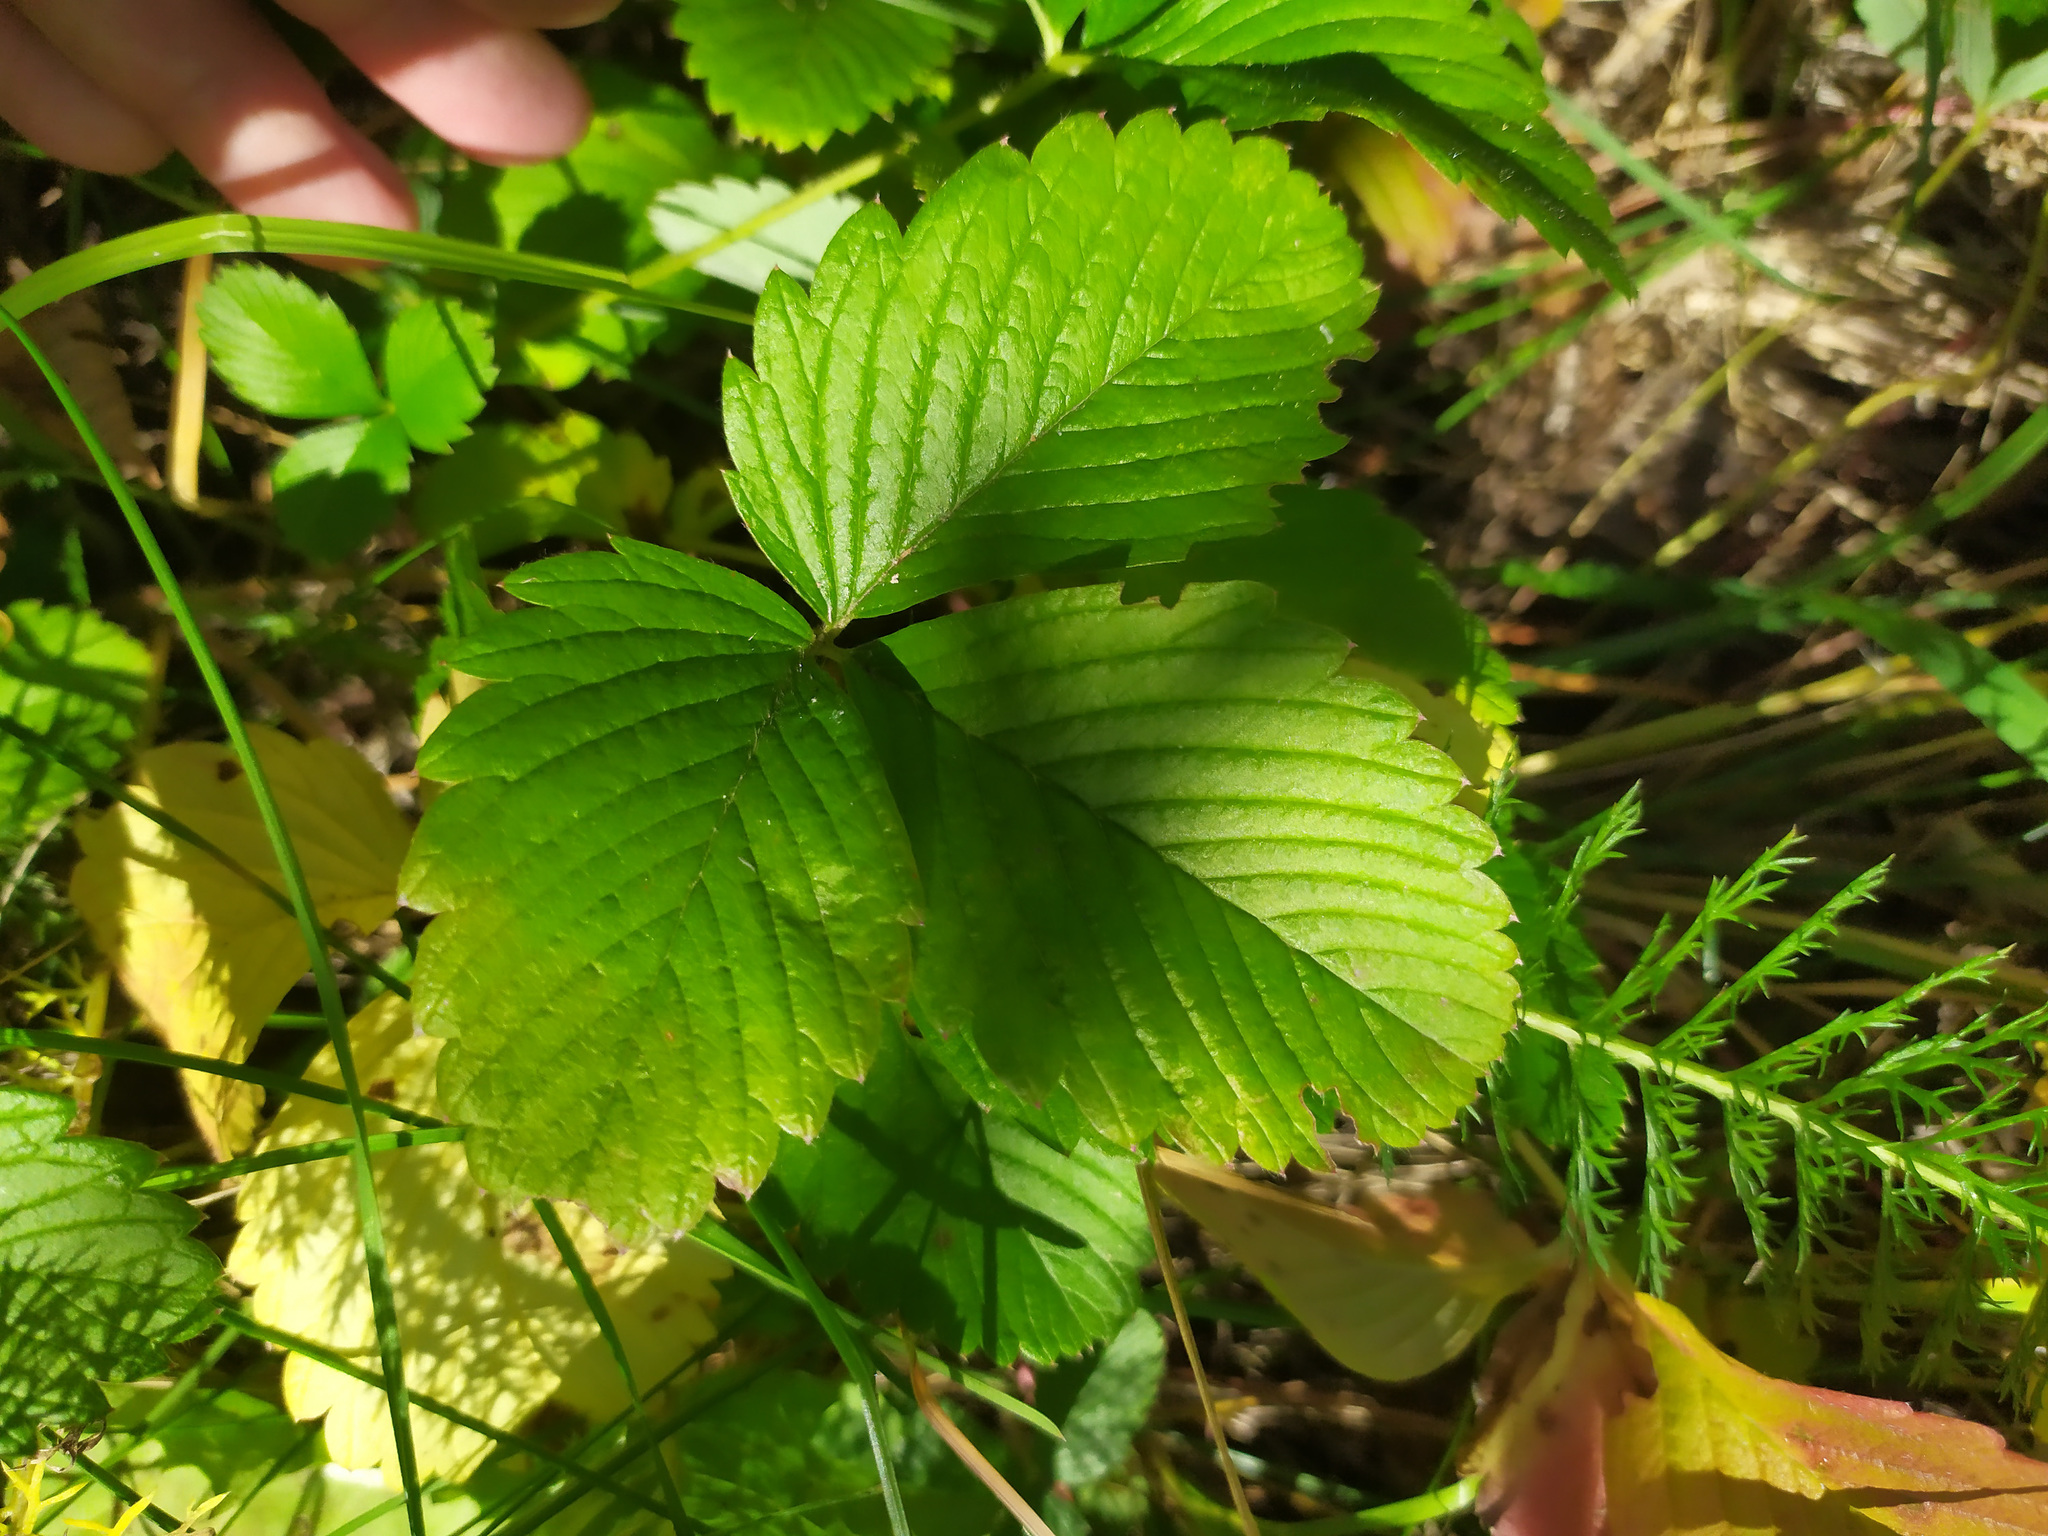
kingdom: Plantae
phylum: Tracheophyta
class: Magnoliopsida
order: Rosales
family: Rosaceae
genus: Fragaria
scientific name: Fragaria viridis
